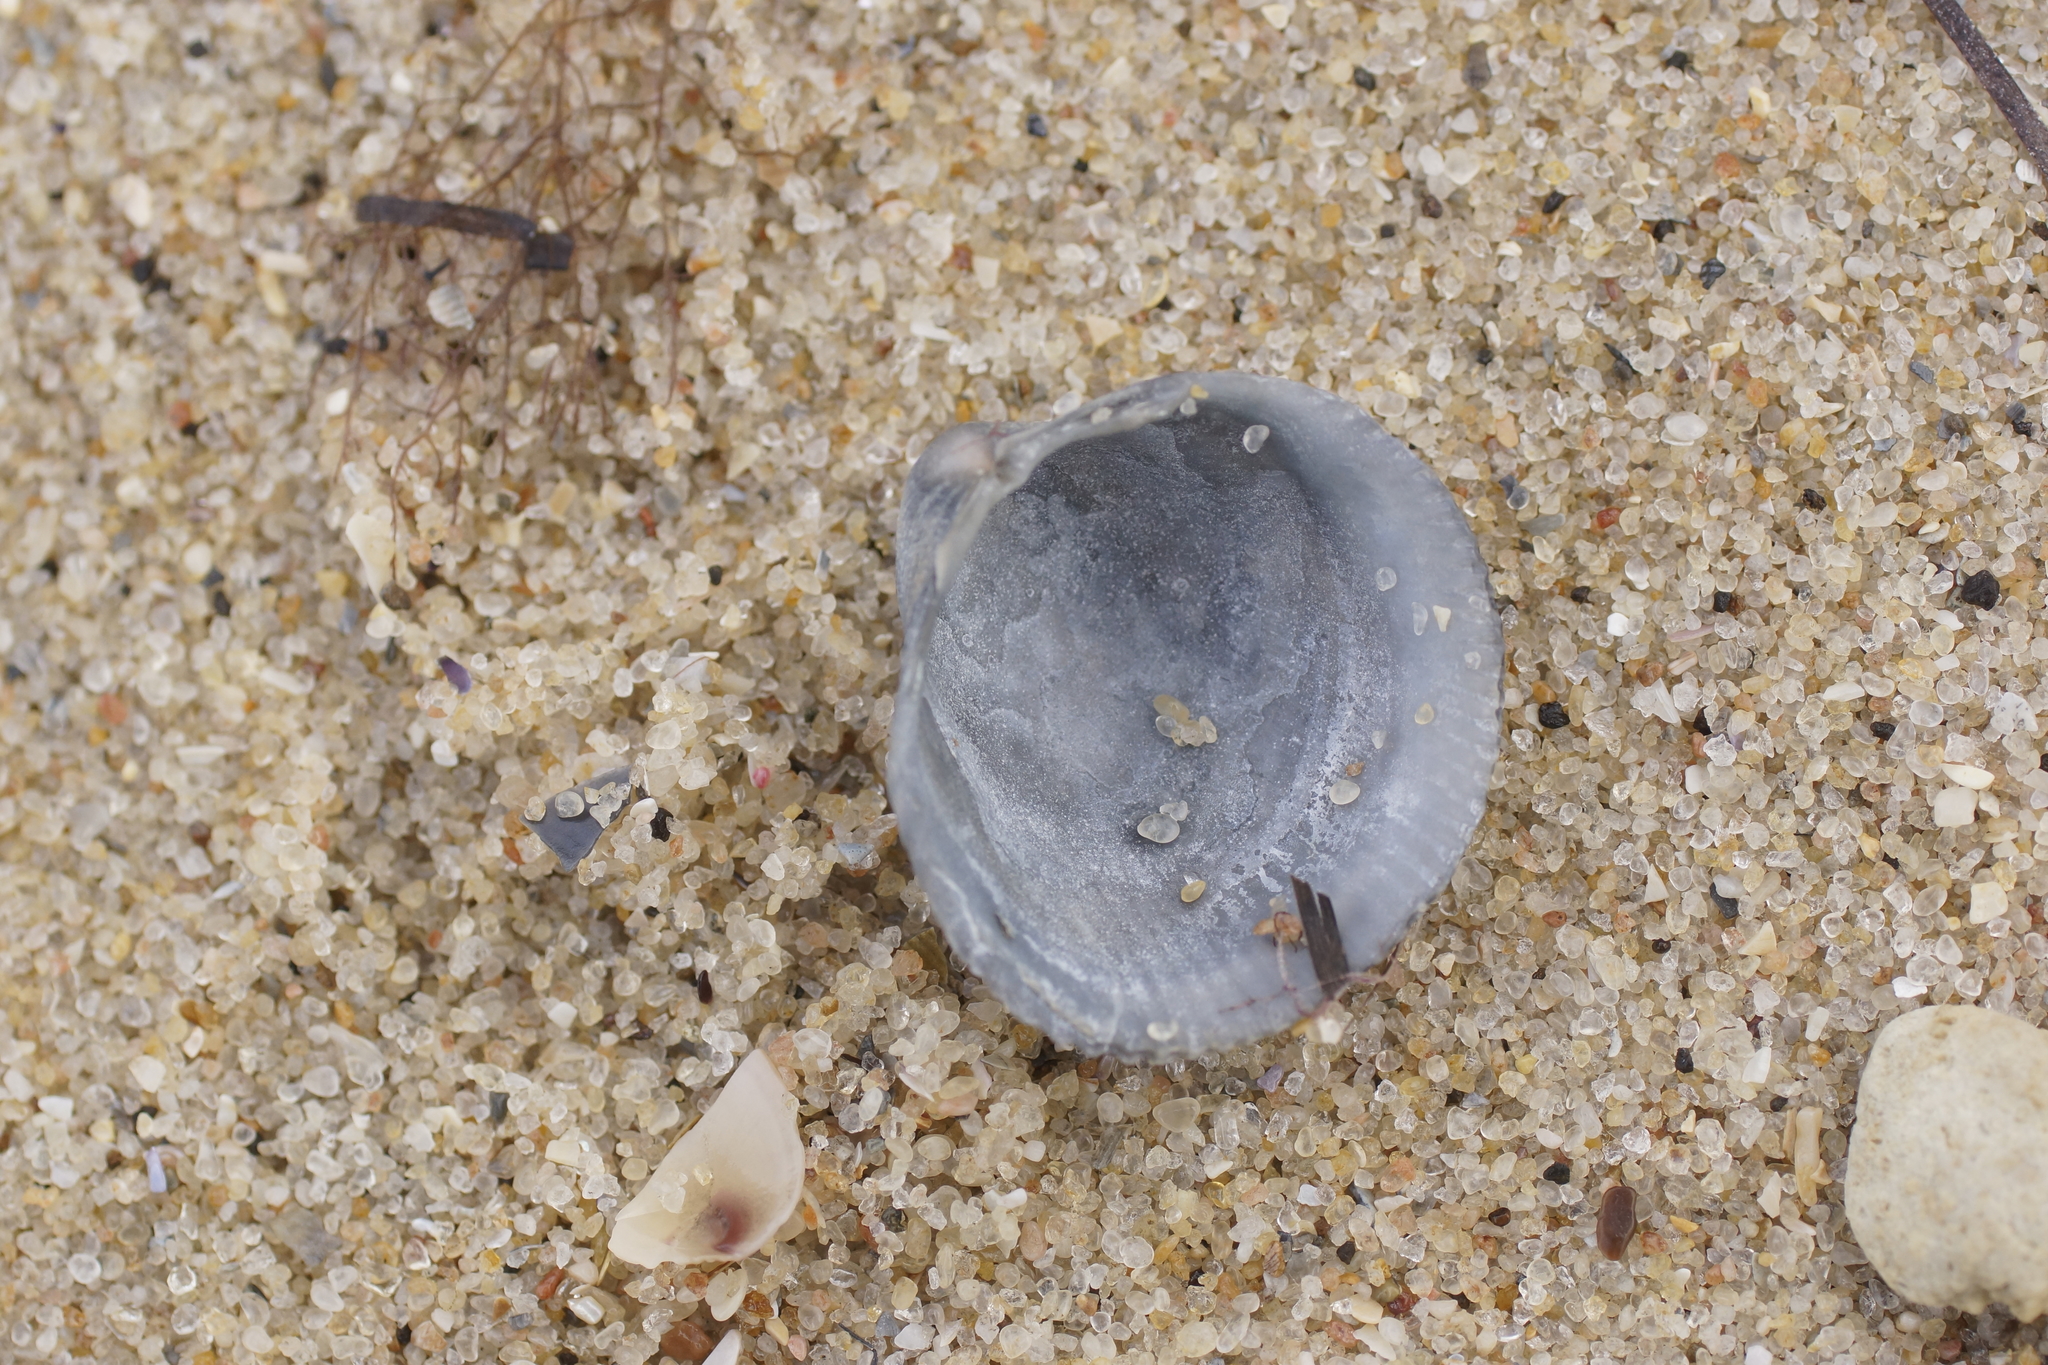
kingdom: Animalia
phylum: Mollusca
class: Bivalvia
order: Cardiida
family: Cardiidae
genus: Fulvia
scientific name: Fulvia tenuicostata
